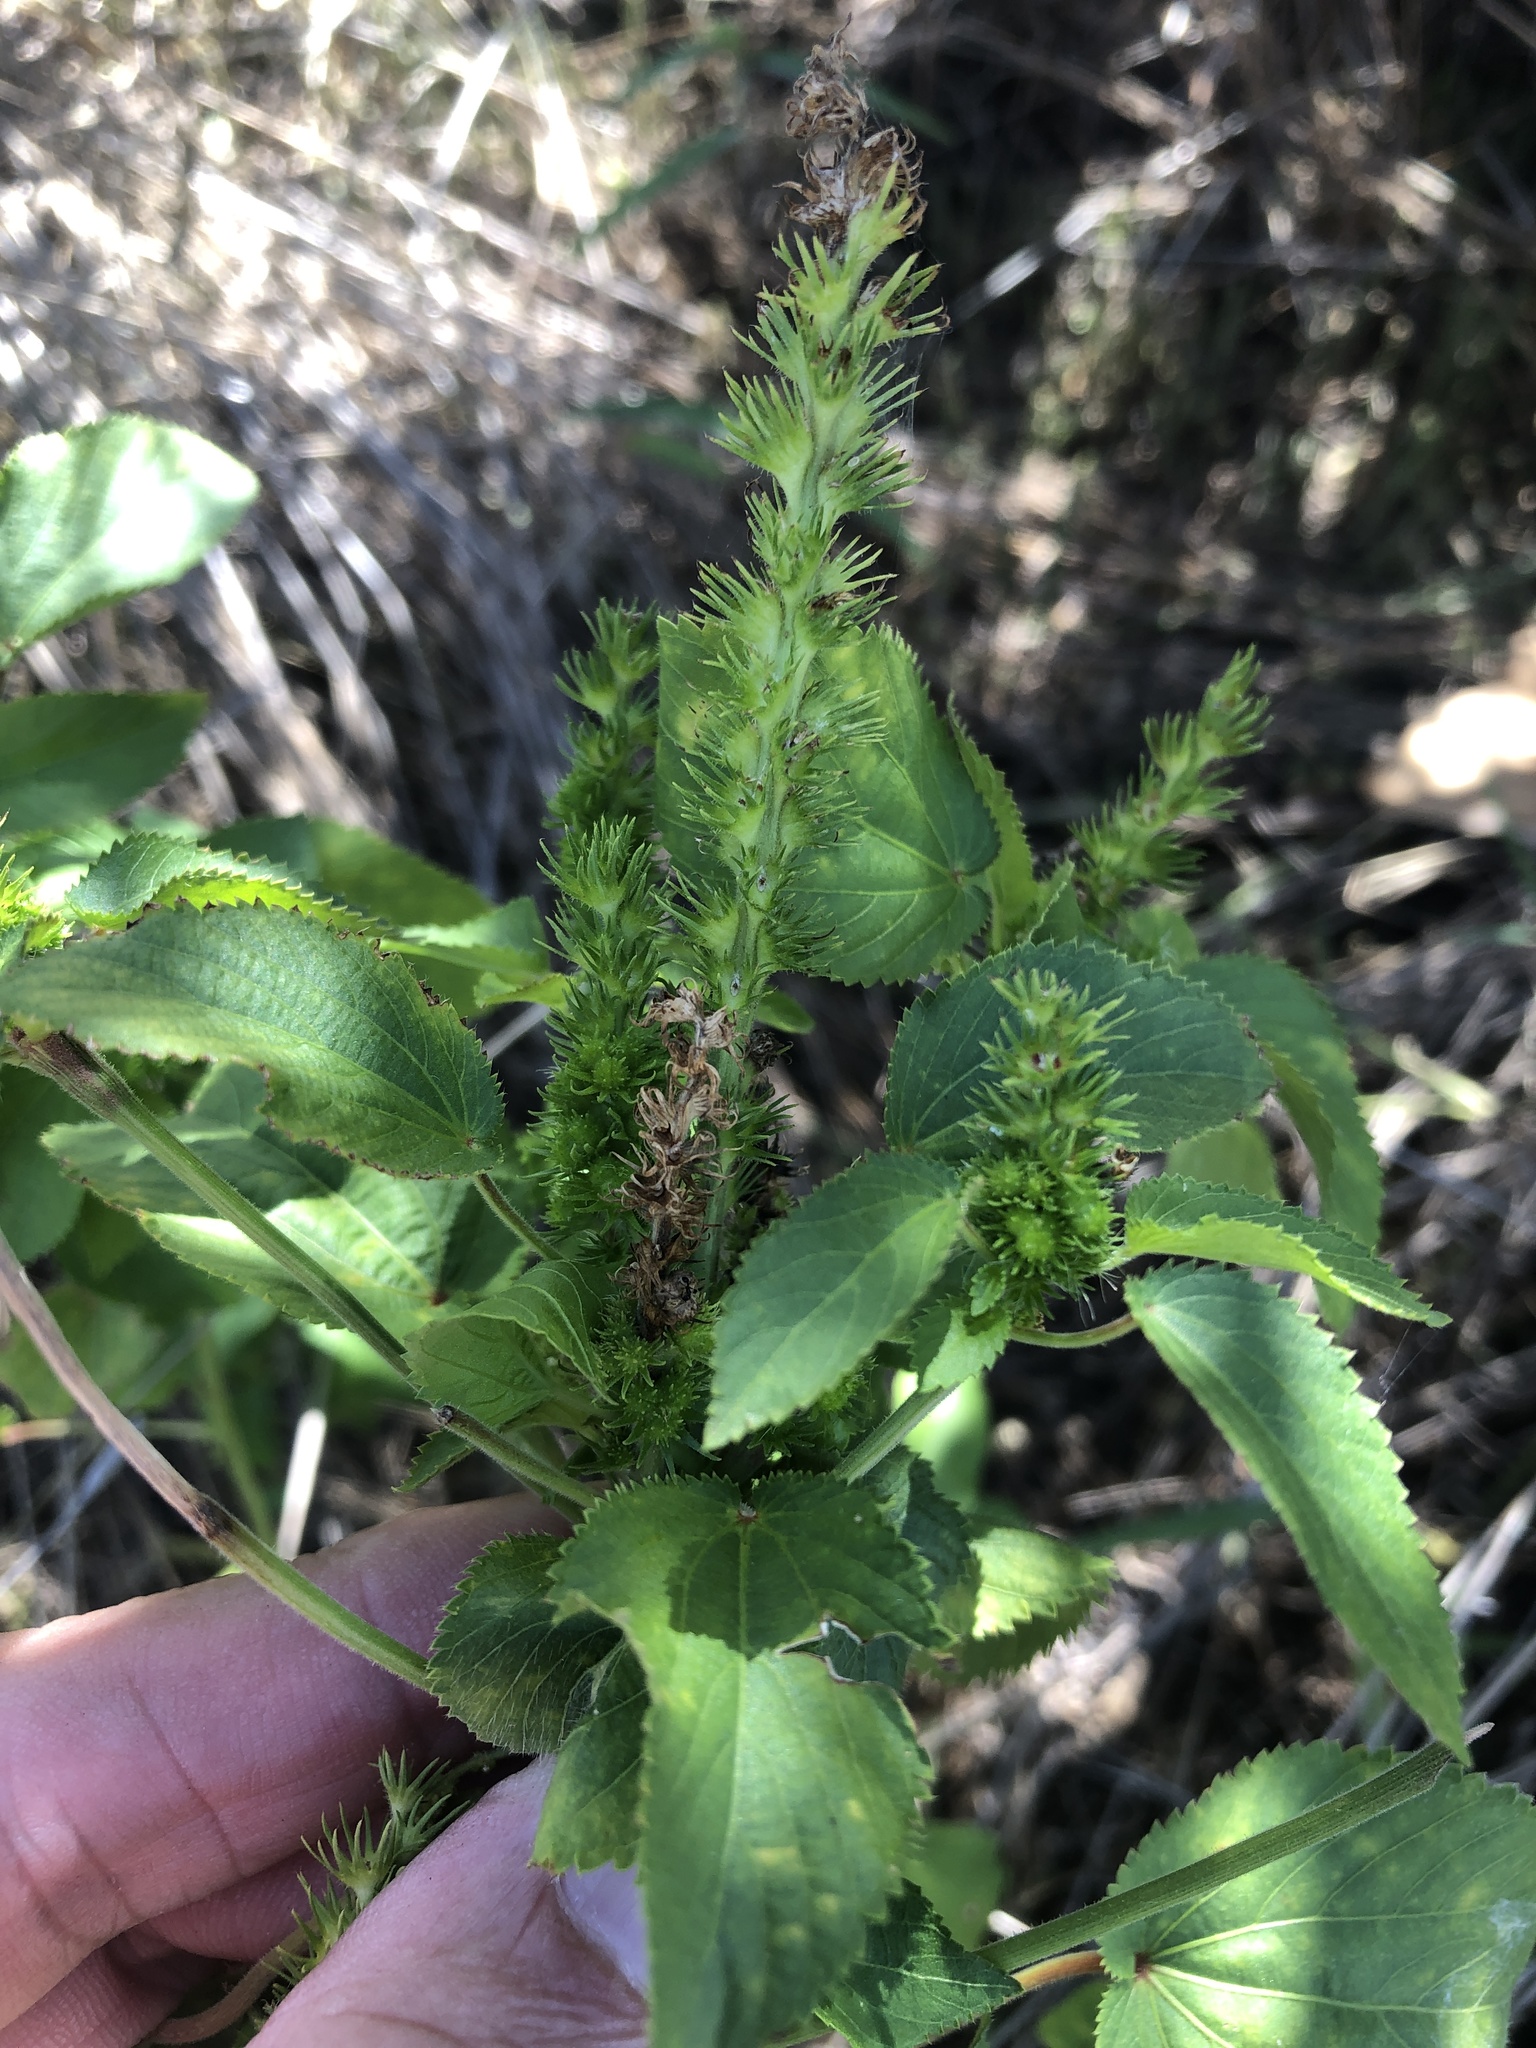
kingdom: Plantae
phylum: Tracheophyta
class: Magnoliopsida
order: Malpighiales
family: Euphorbiaceae
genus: Acalypha
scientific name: Acalypha ostryifolia
